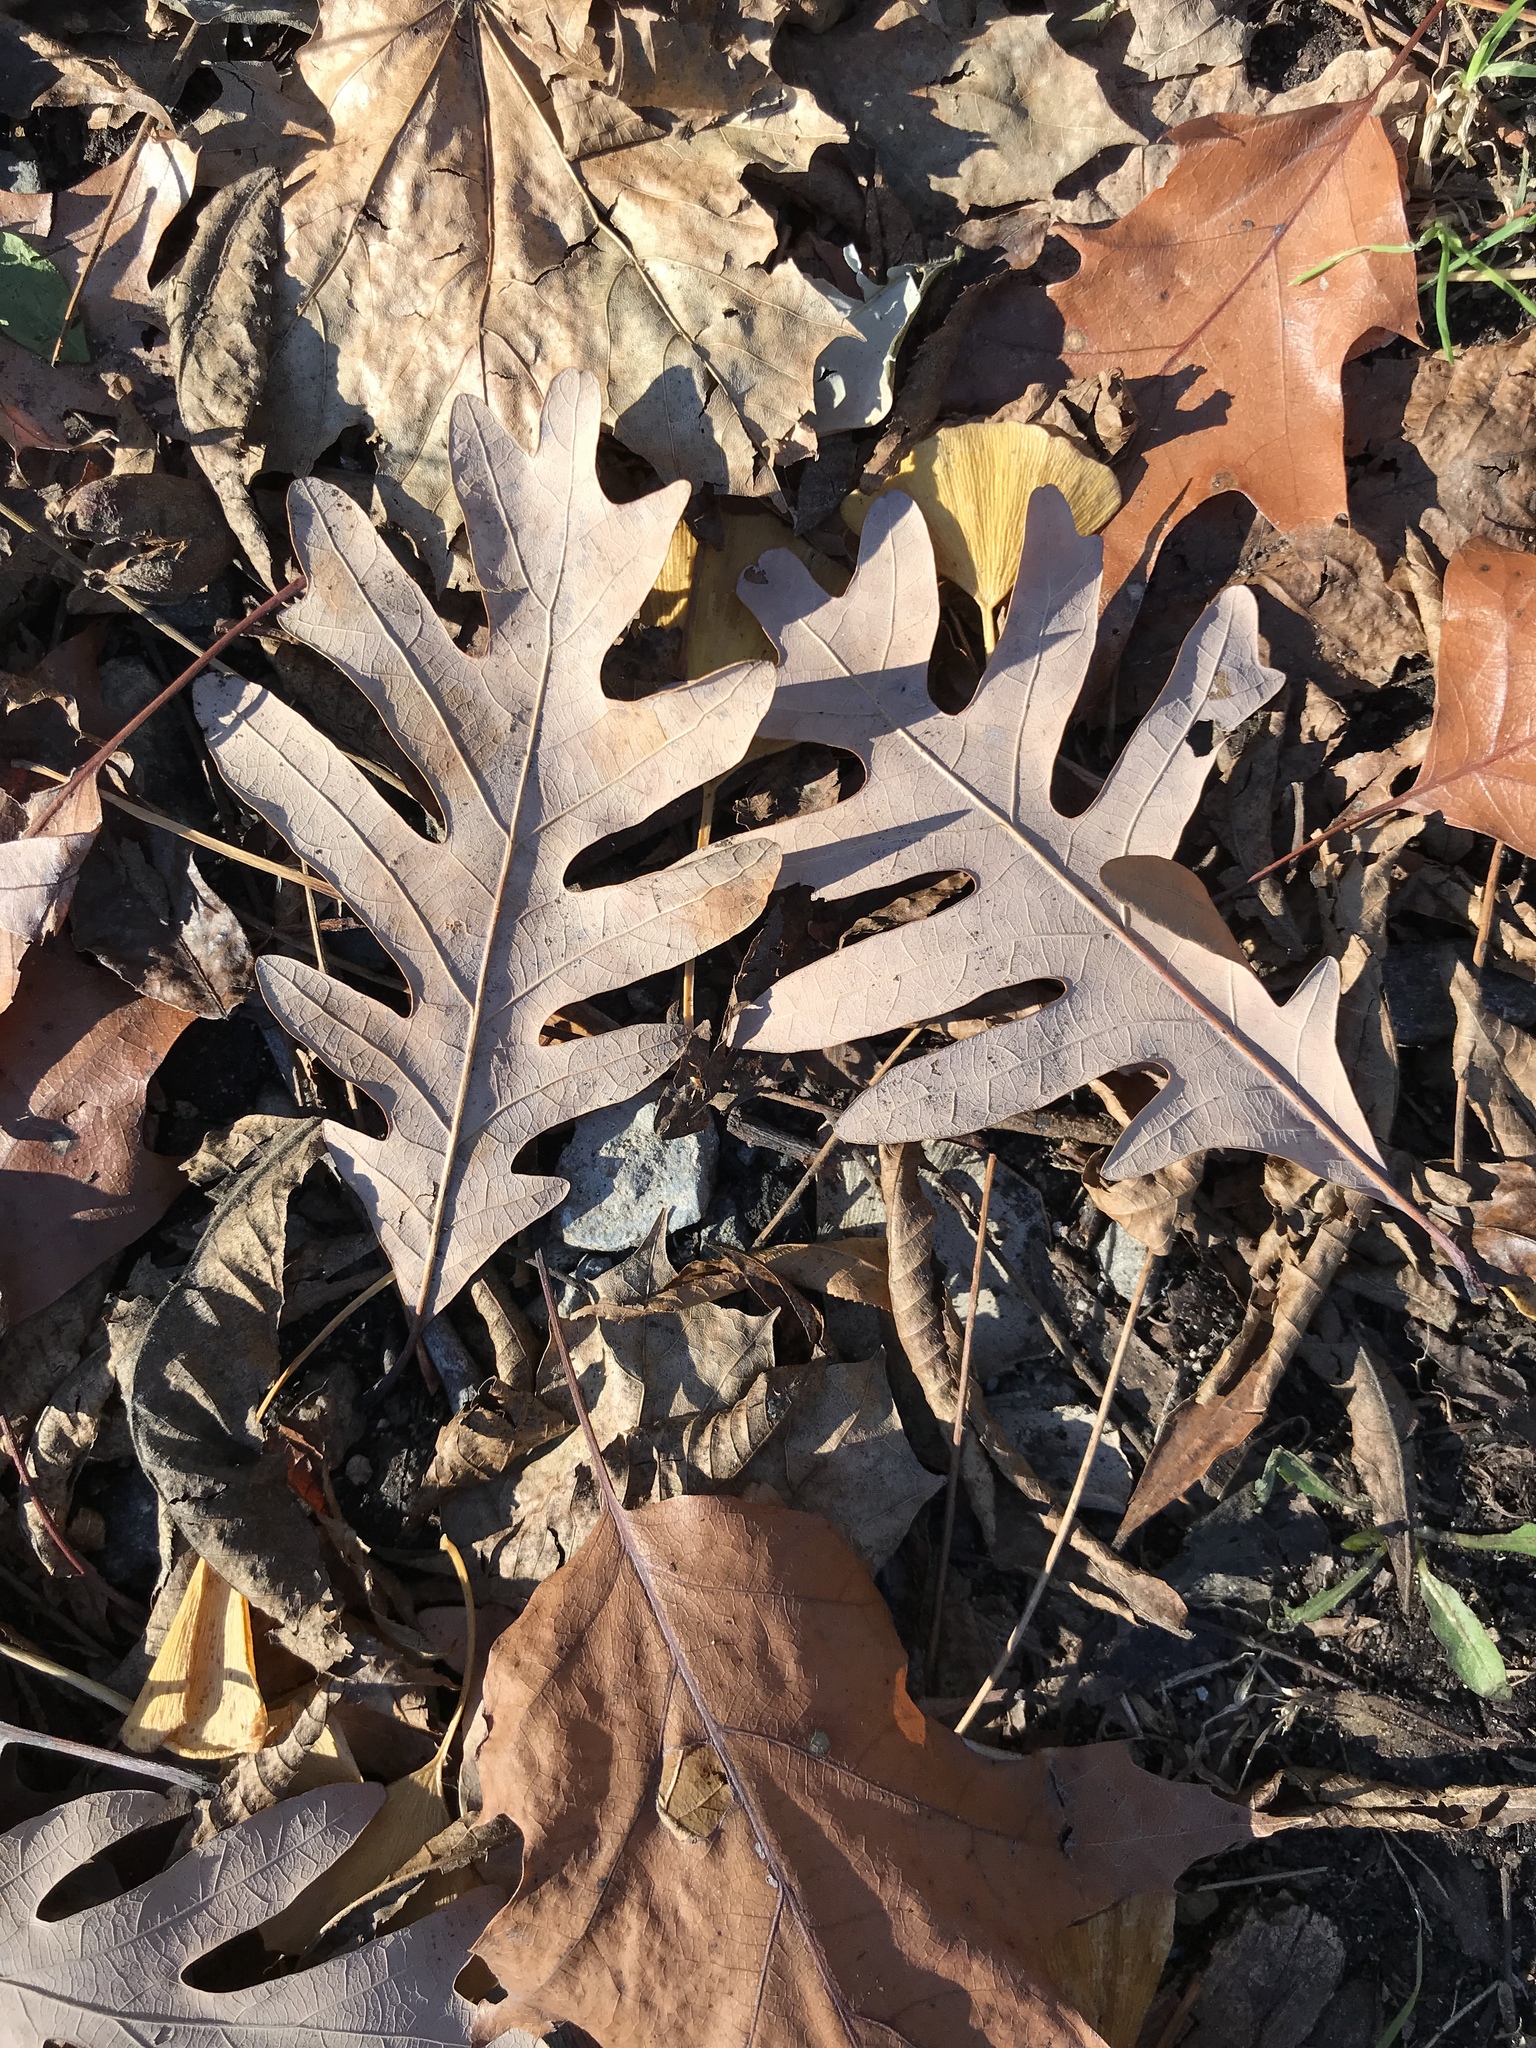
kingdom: Plantae
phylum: Tracheophyta
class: Magnoliopsida
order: Fagales
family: Fagaceae
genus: Quercus
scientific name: Quercus alba
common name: White oak
